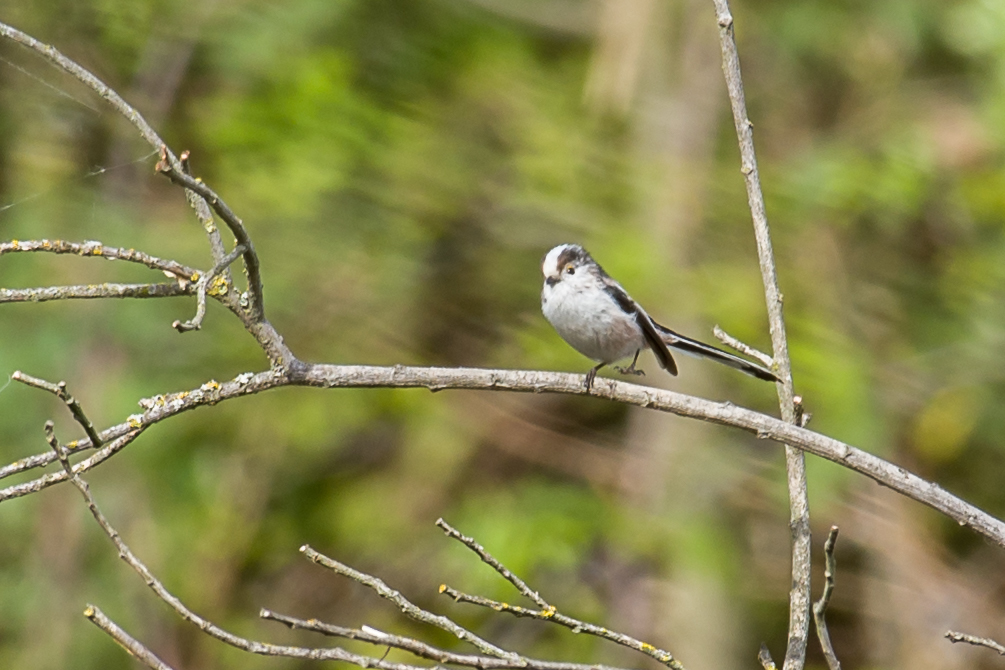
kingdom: Animalia
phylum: Chordata
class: Aves
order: Passeriformes
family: Aegithalidae
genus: Aegithalos
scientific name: Aegithalos caudatus
